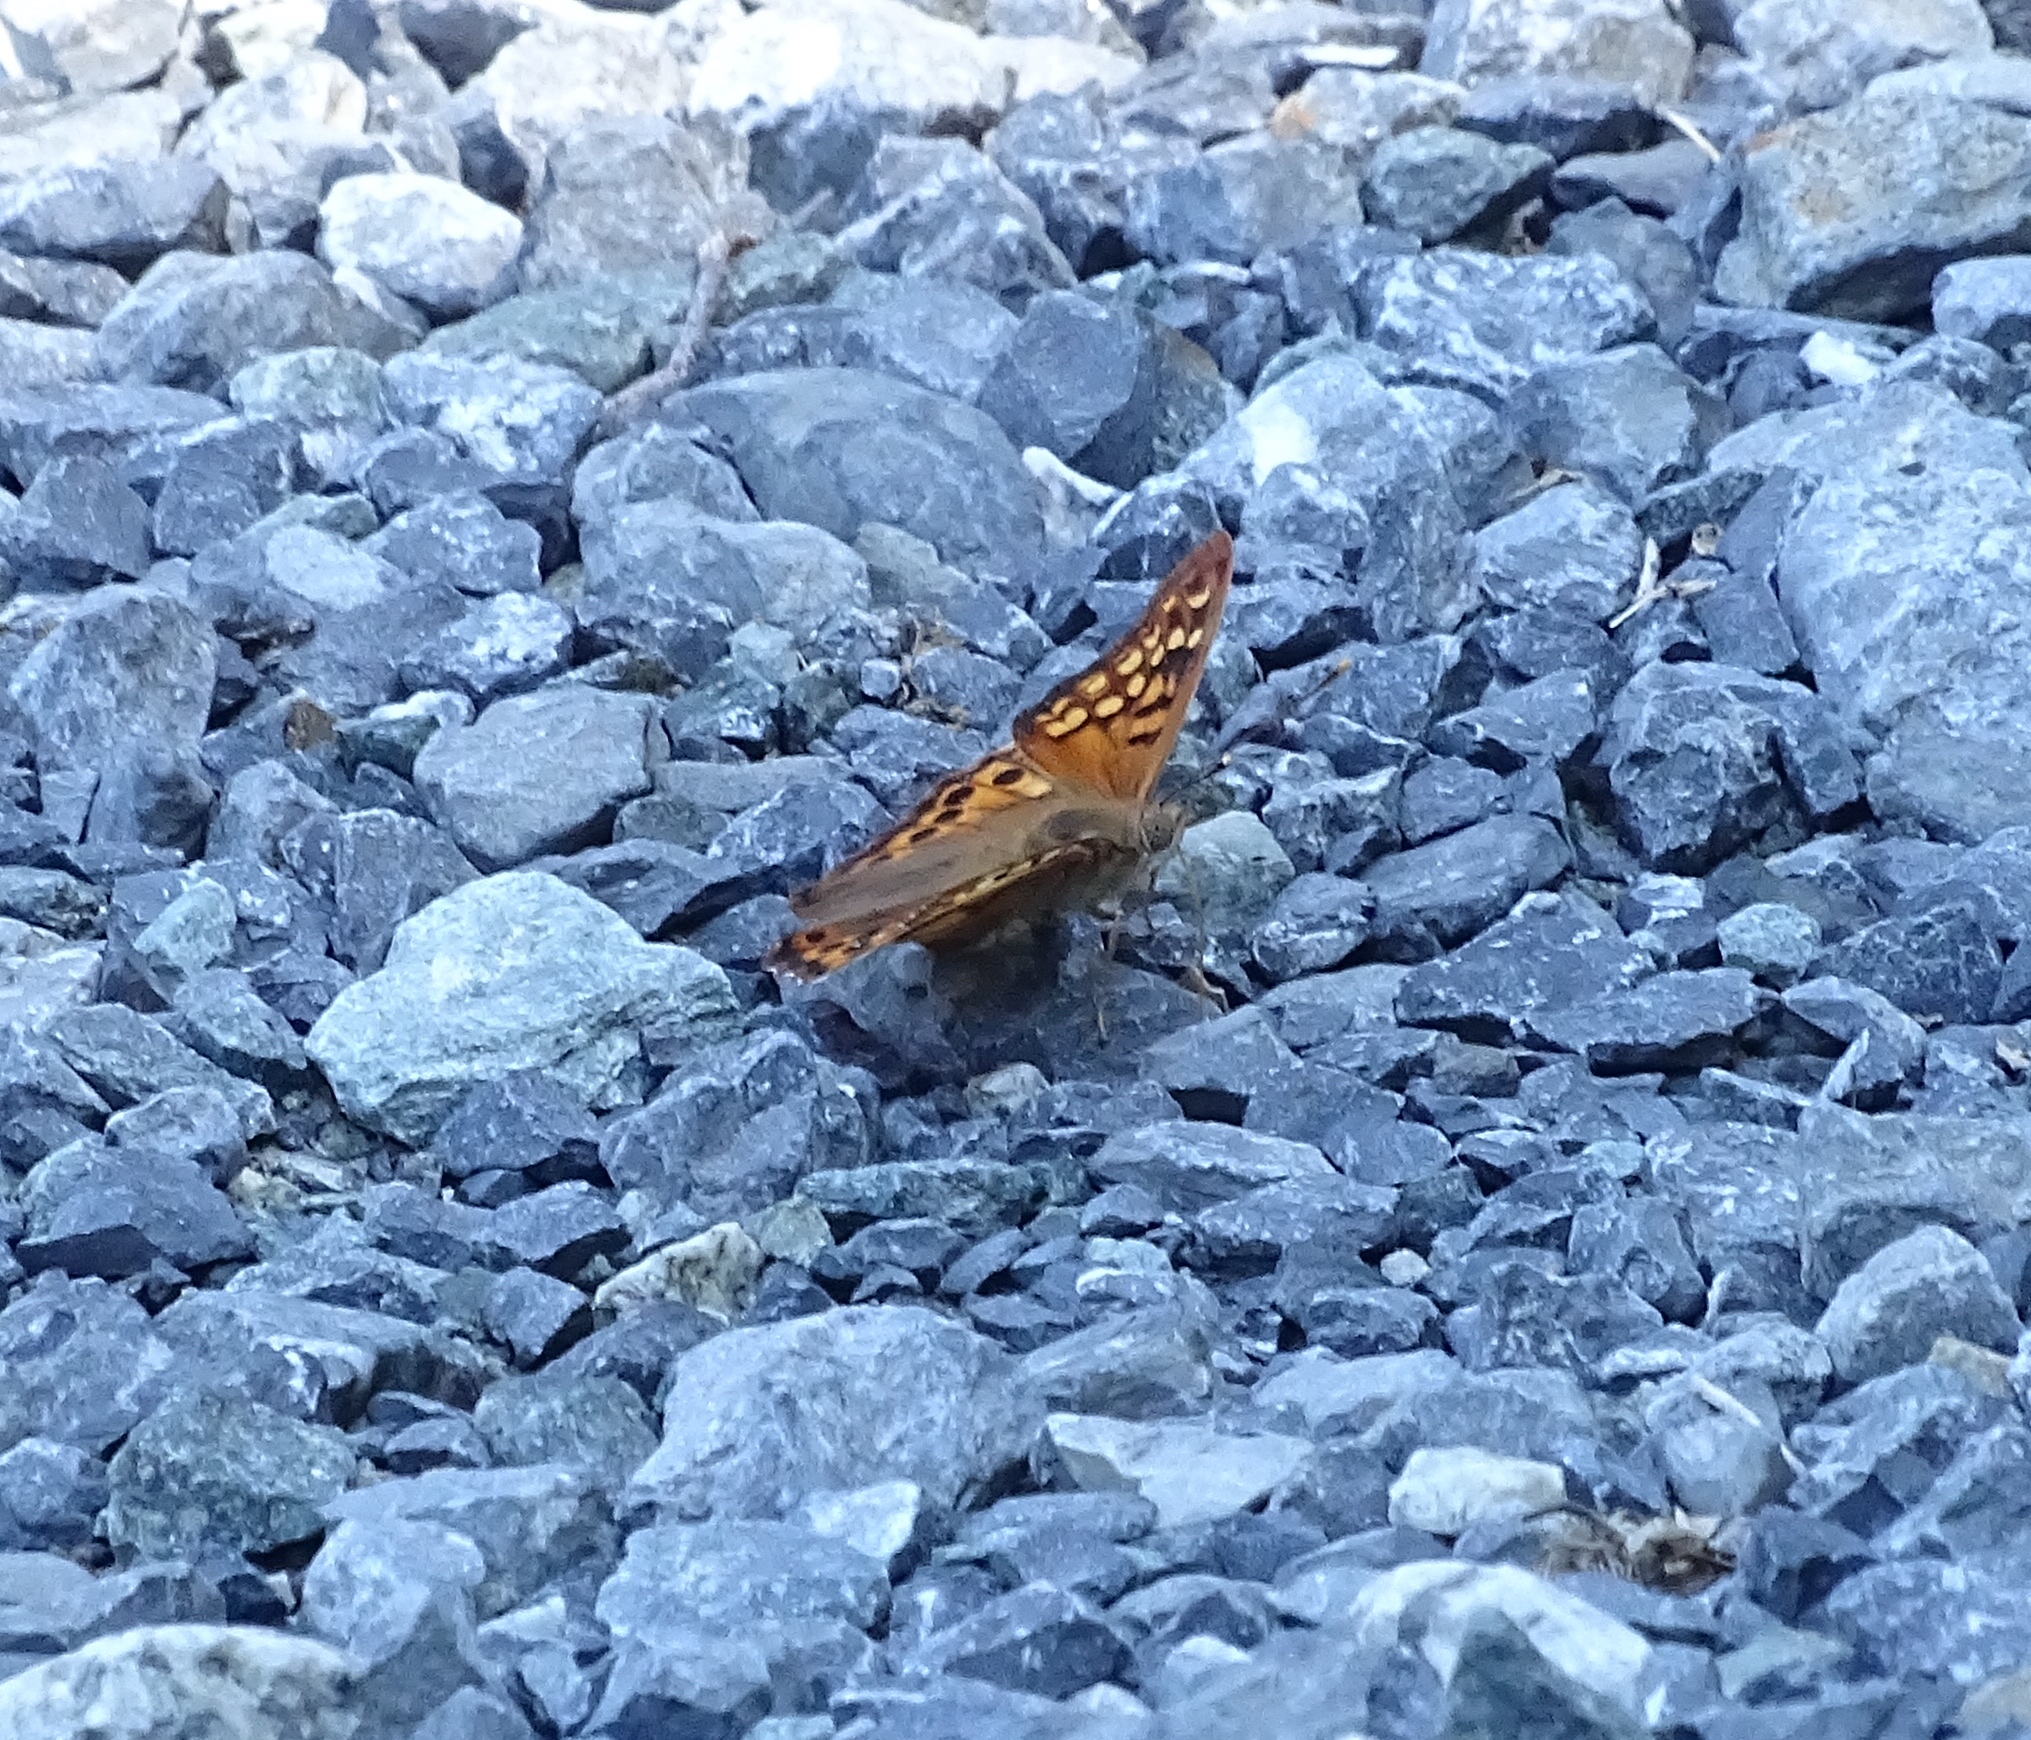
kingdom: Animalia
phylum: Arthropoda
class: Insecta
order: Lepidoptera
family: Nymphalidae
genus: Asterocampa
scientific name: Asterocampa clyton
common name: Tawny emperor
